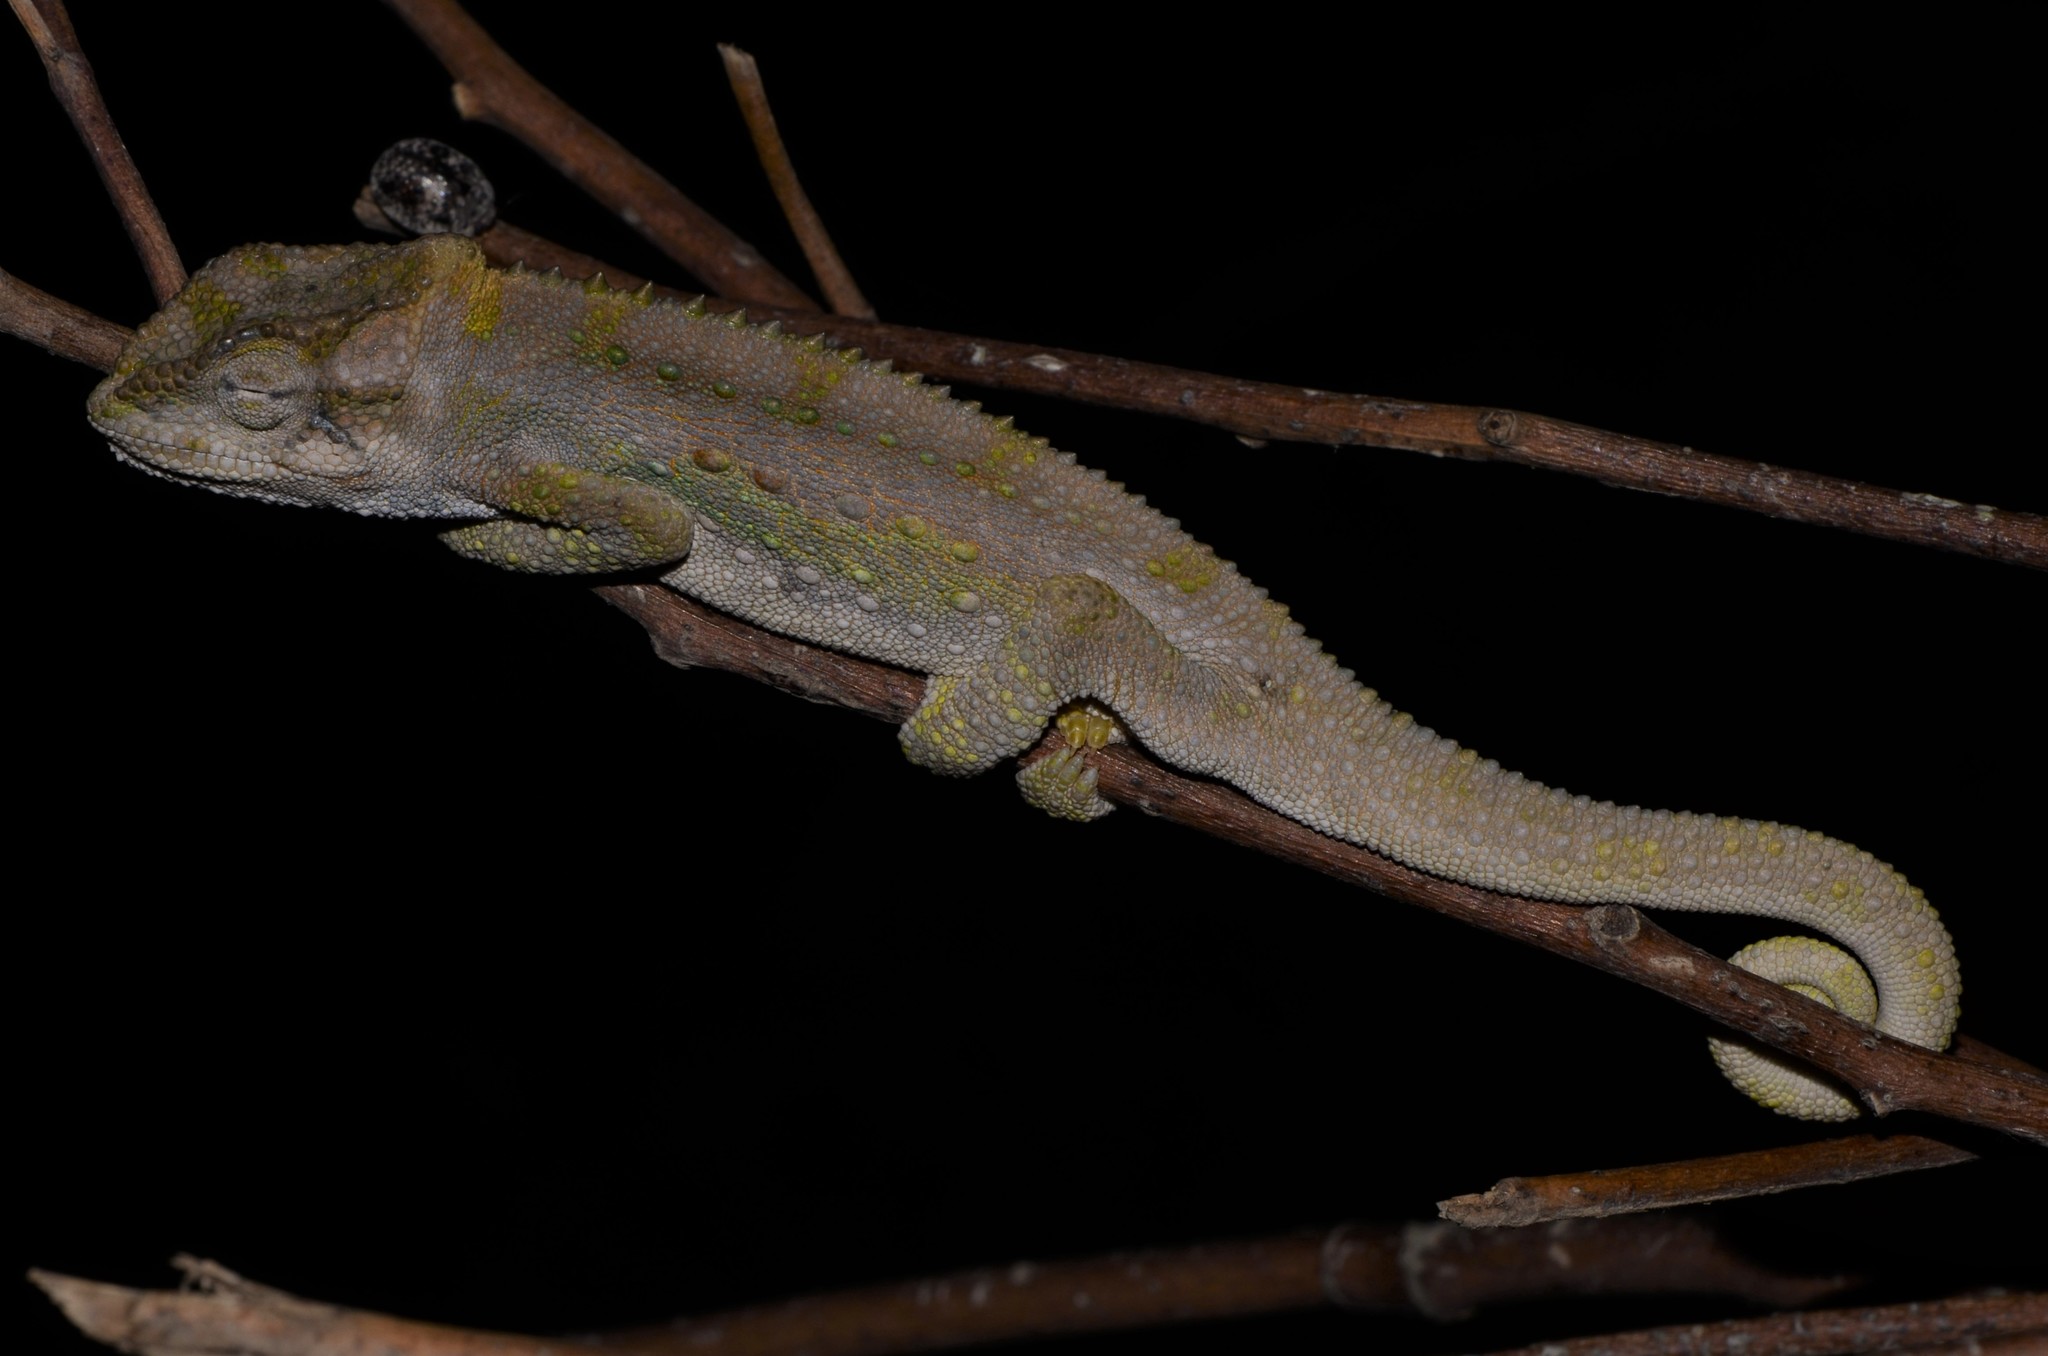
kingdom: Animalia
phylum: Chordata
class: Squamata
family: Chamaeleonidae
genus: Bradypodion
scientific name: Bradypodion pumilum
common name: Cape dwarf chameleon
